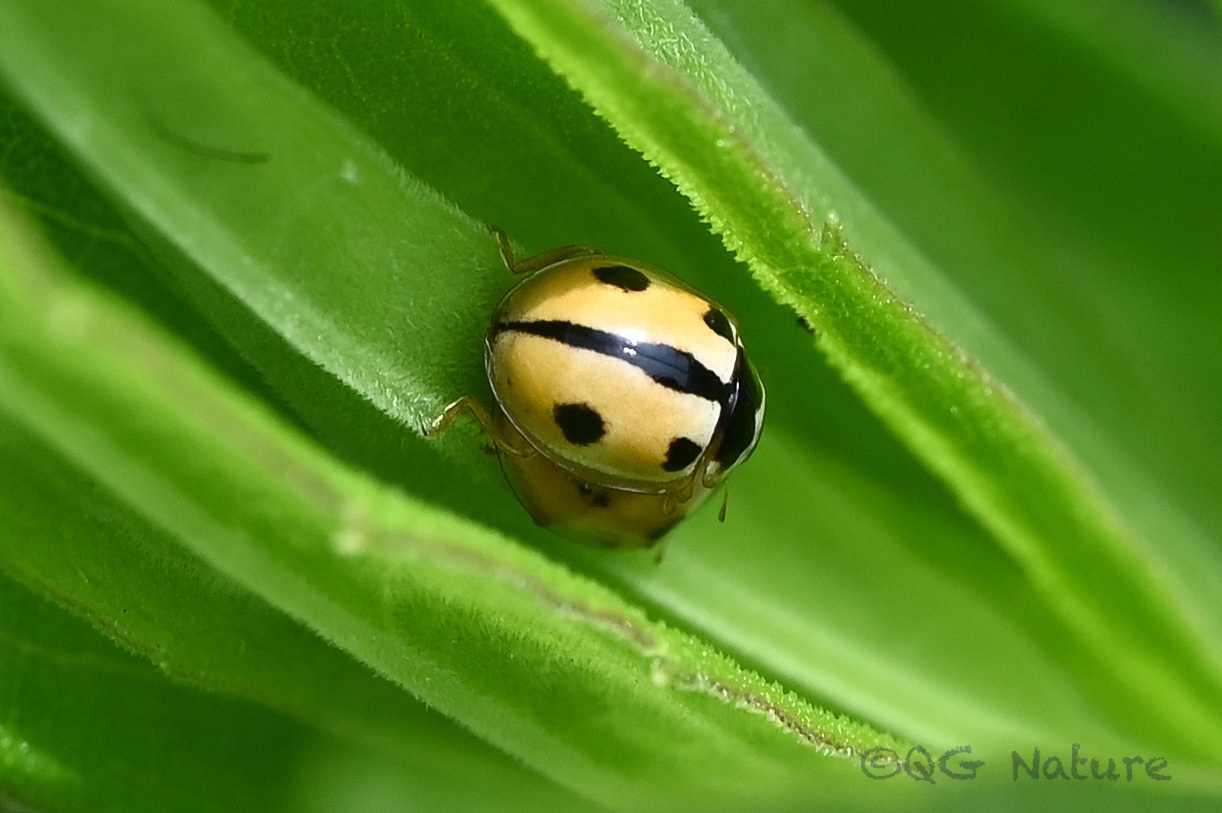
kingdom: Animalia
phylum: Arthropoda
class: Insecta
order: Coleoptera
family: Coccinellidae
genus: Propylea
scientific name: Propylea japonica
